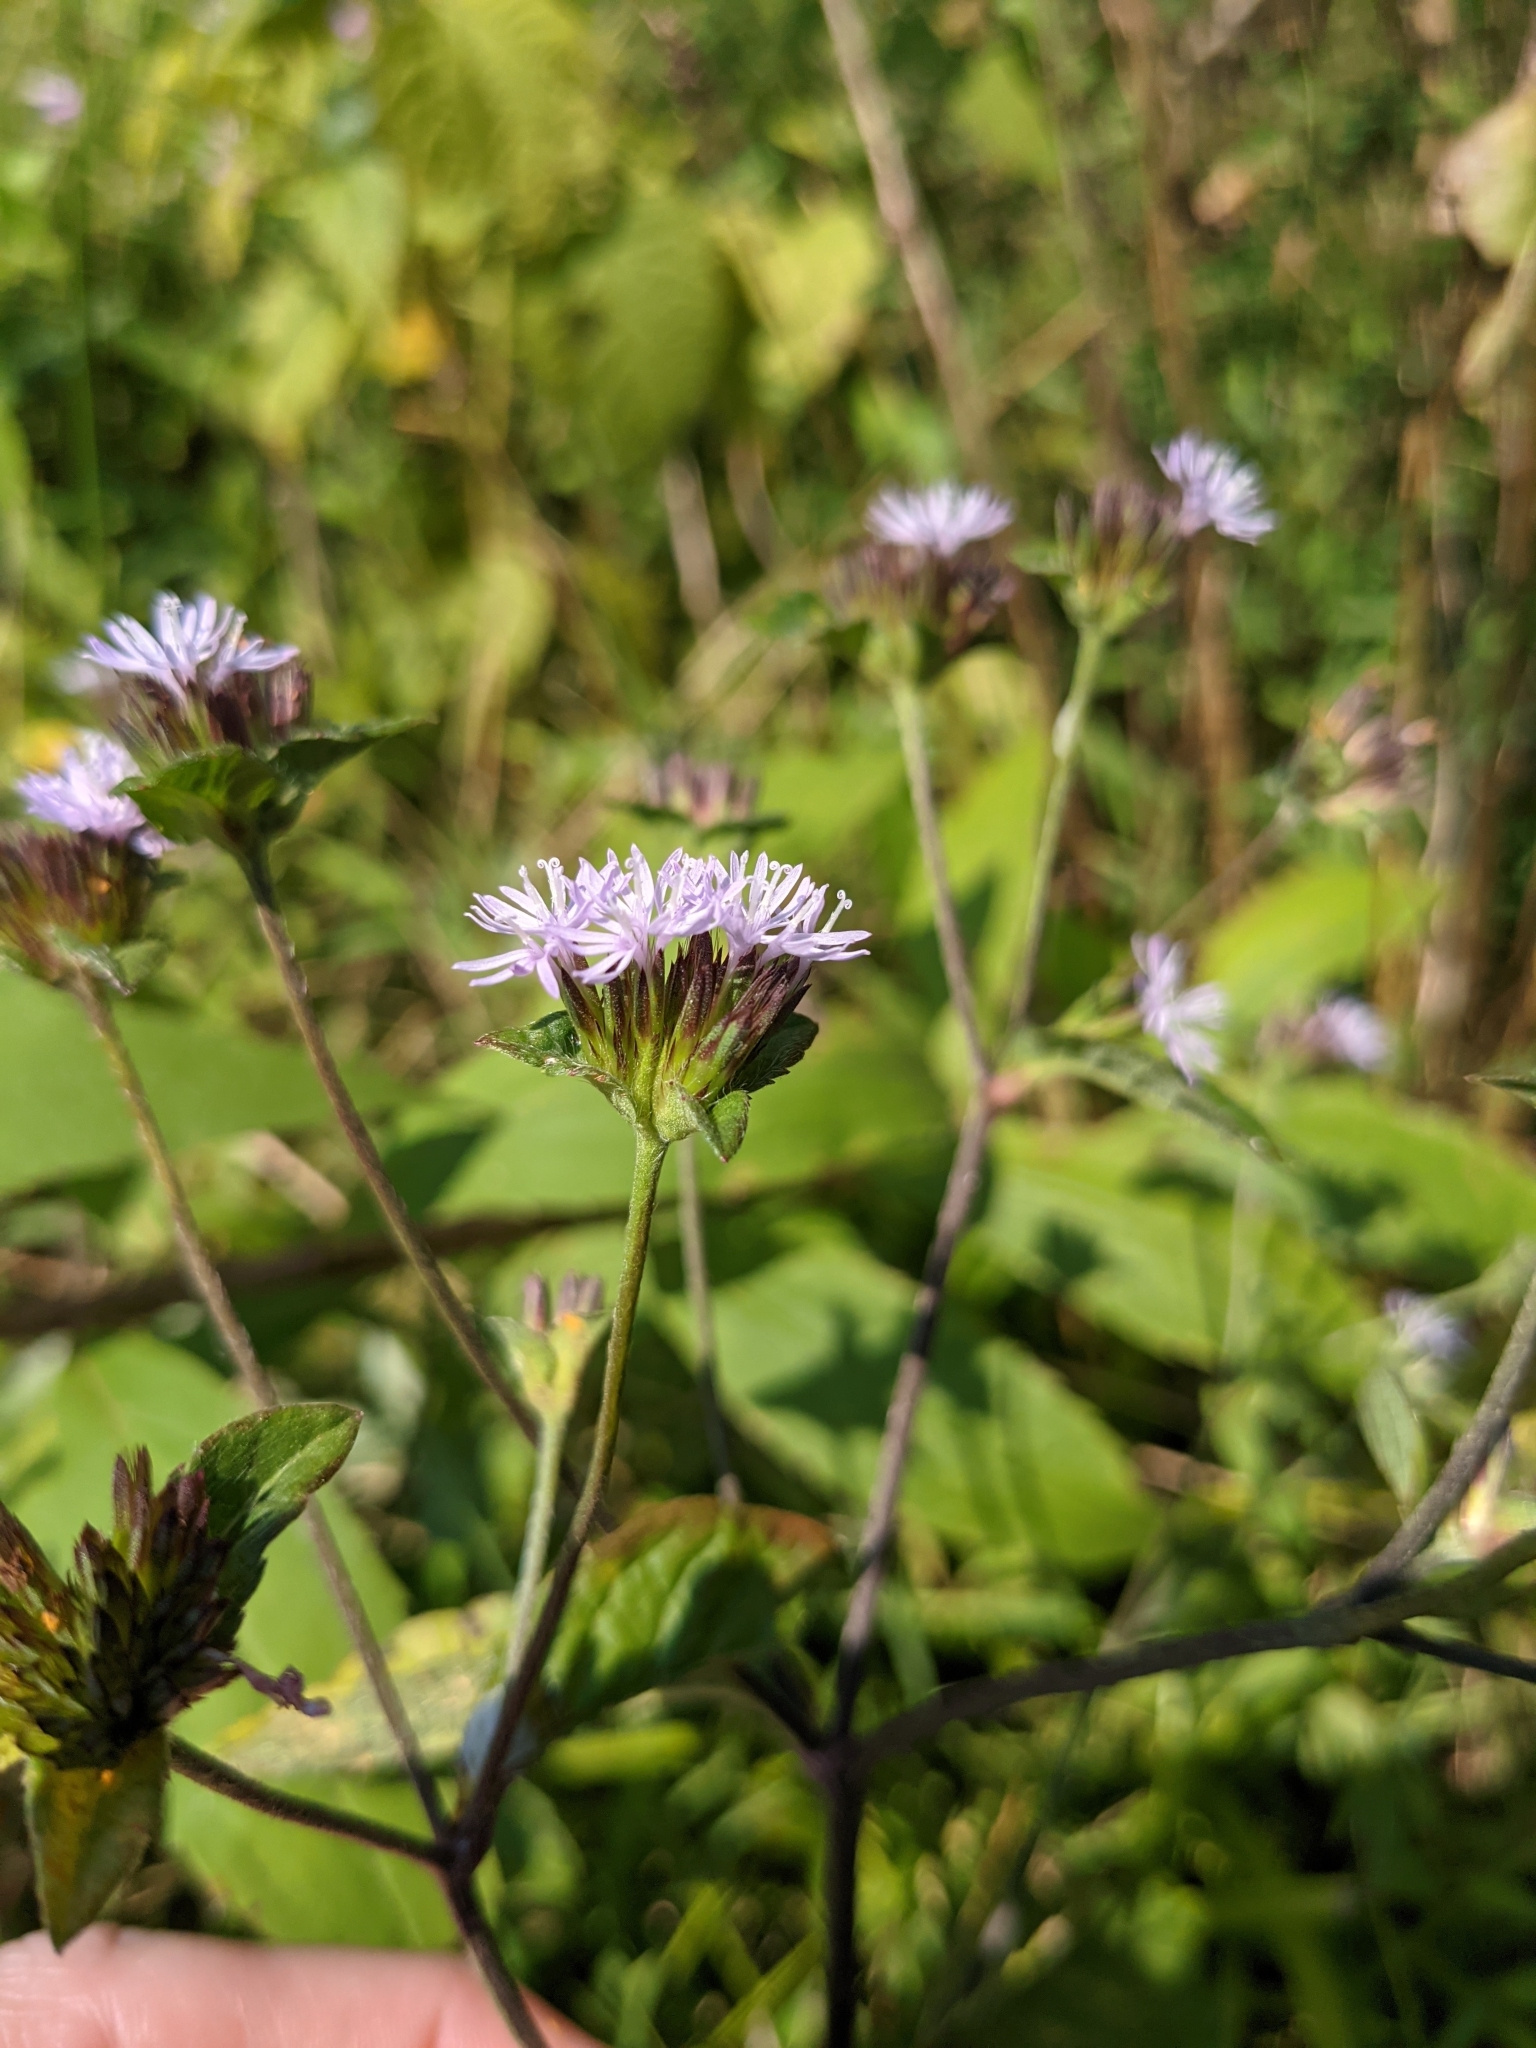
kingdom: Plantae
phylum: Tracheophyta
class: Magnoliopsida
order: Asterales
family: Asteraceae
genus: Elephantopus
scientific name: Elephantopus carolinianus
